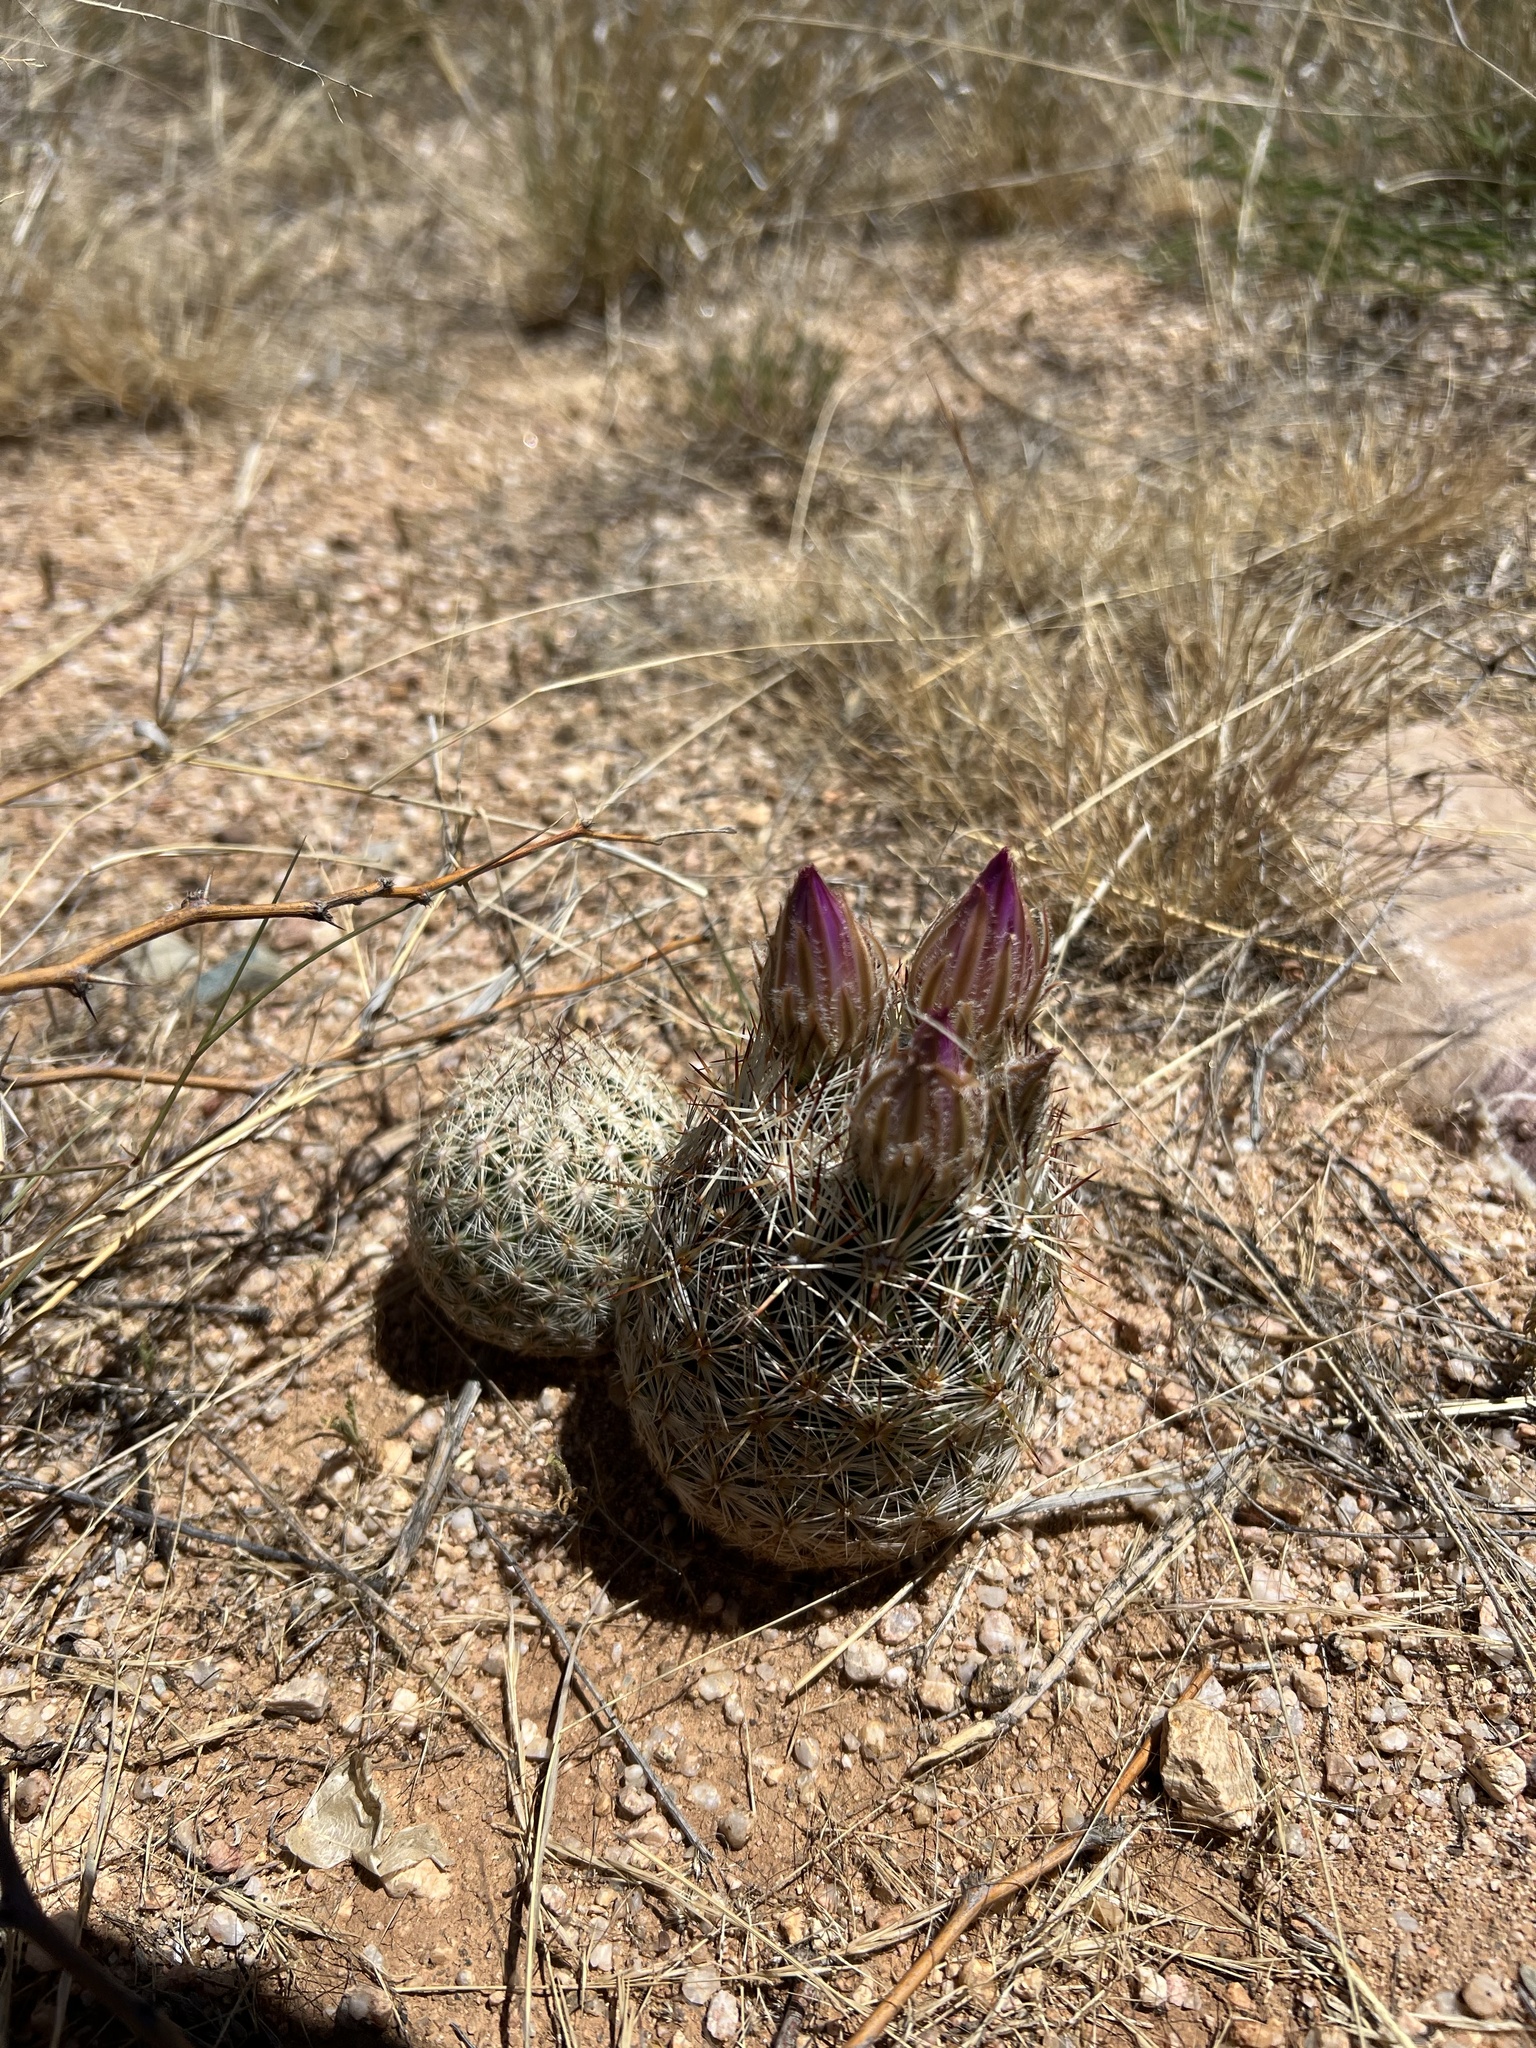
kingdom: Plantae
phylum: Tracheophyta
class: Magnoliopsida
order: Caryophyllales
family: Cactaceae
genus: Pelecyphora
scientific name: Pelecyphora vivipara
